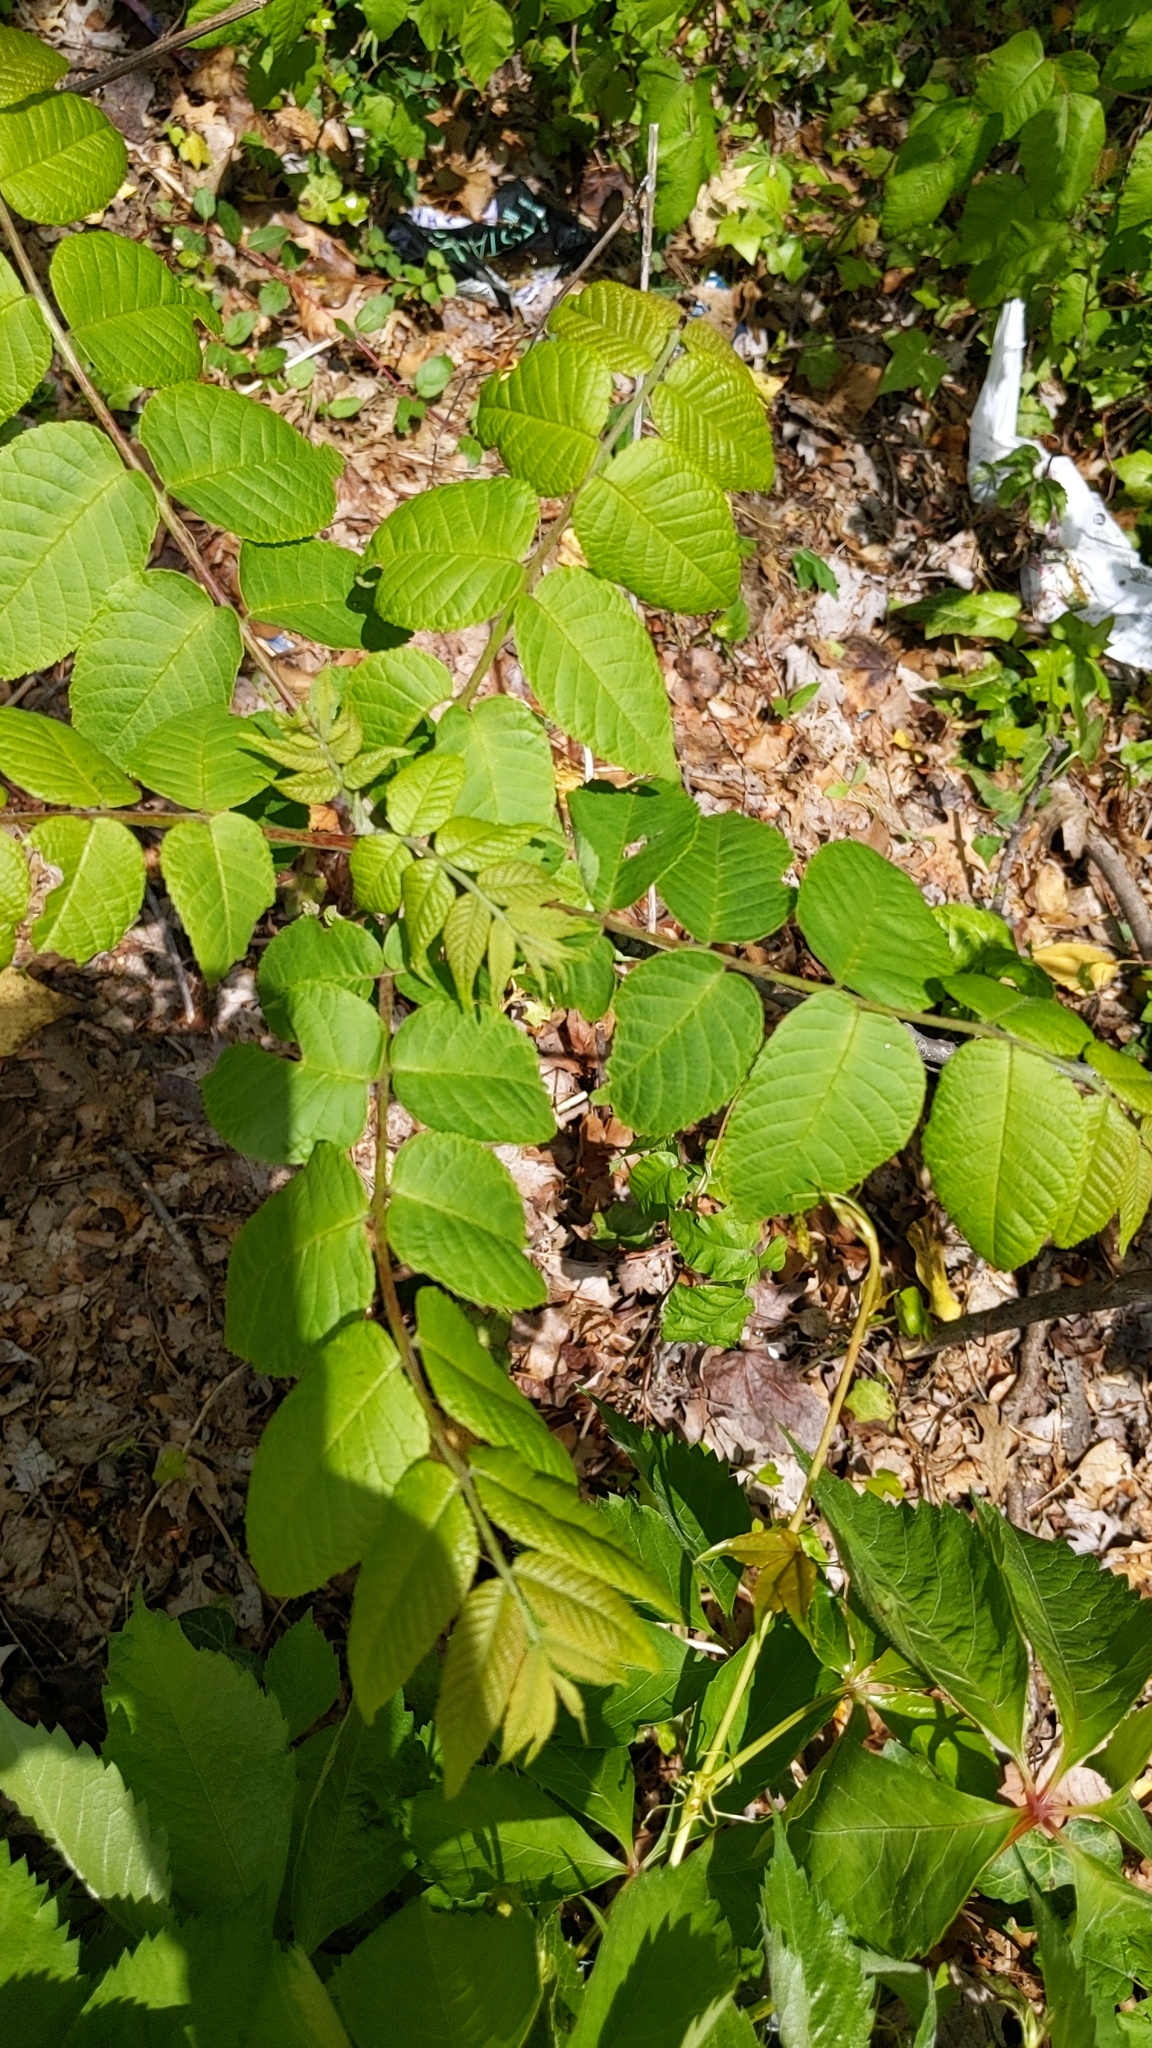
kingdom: Plantae
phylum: Tracheophyta
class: Magnoliopsida
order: Sapindales
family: Simaroubaceae
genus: Ailanthus
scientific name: Ailanthus altissima
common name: Tree-of-heaven
